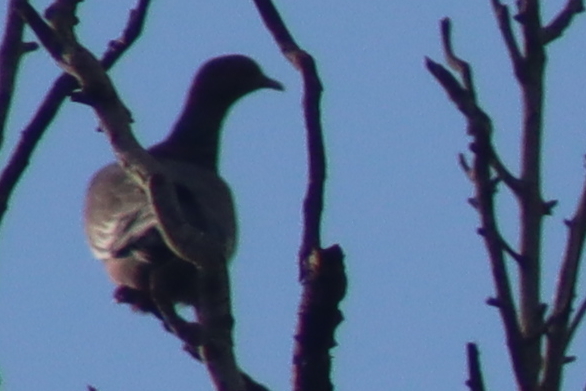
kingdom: Animalia
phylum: Chordata
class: Aves
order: Columbiformes
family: Columbidae
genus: Patagioenas
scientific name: Patagioenas picazuro
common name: Picazuro pigeon
